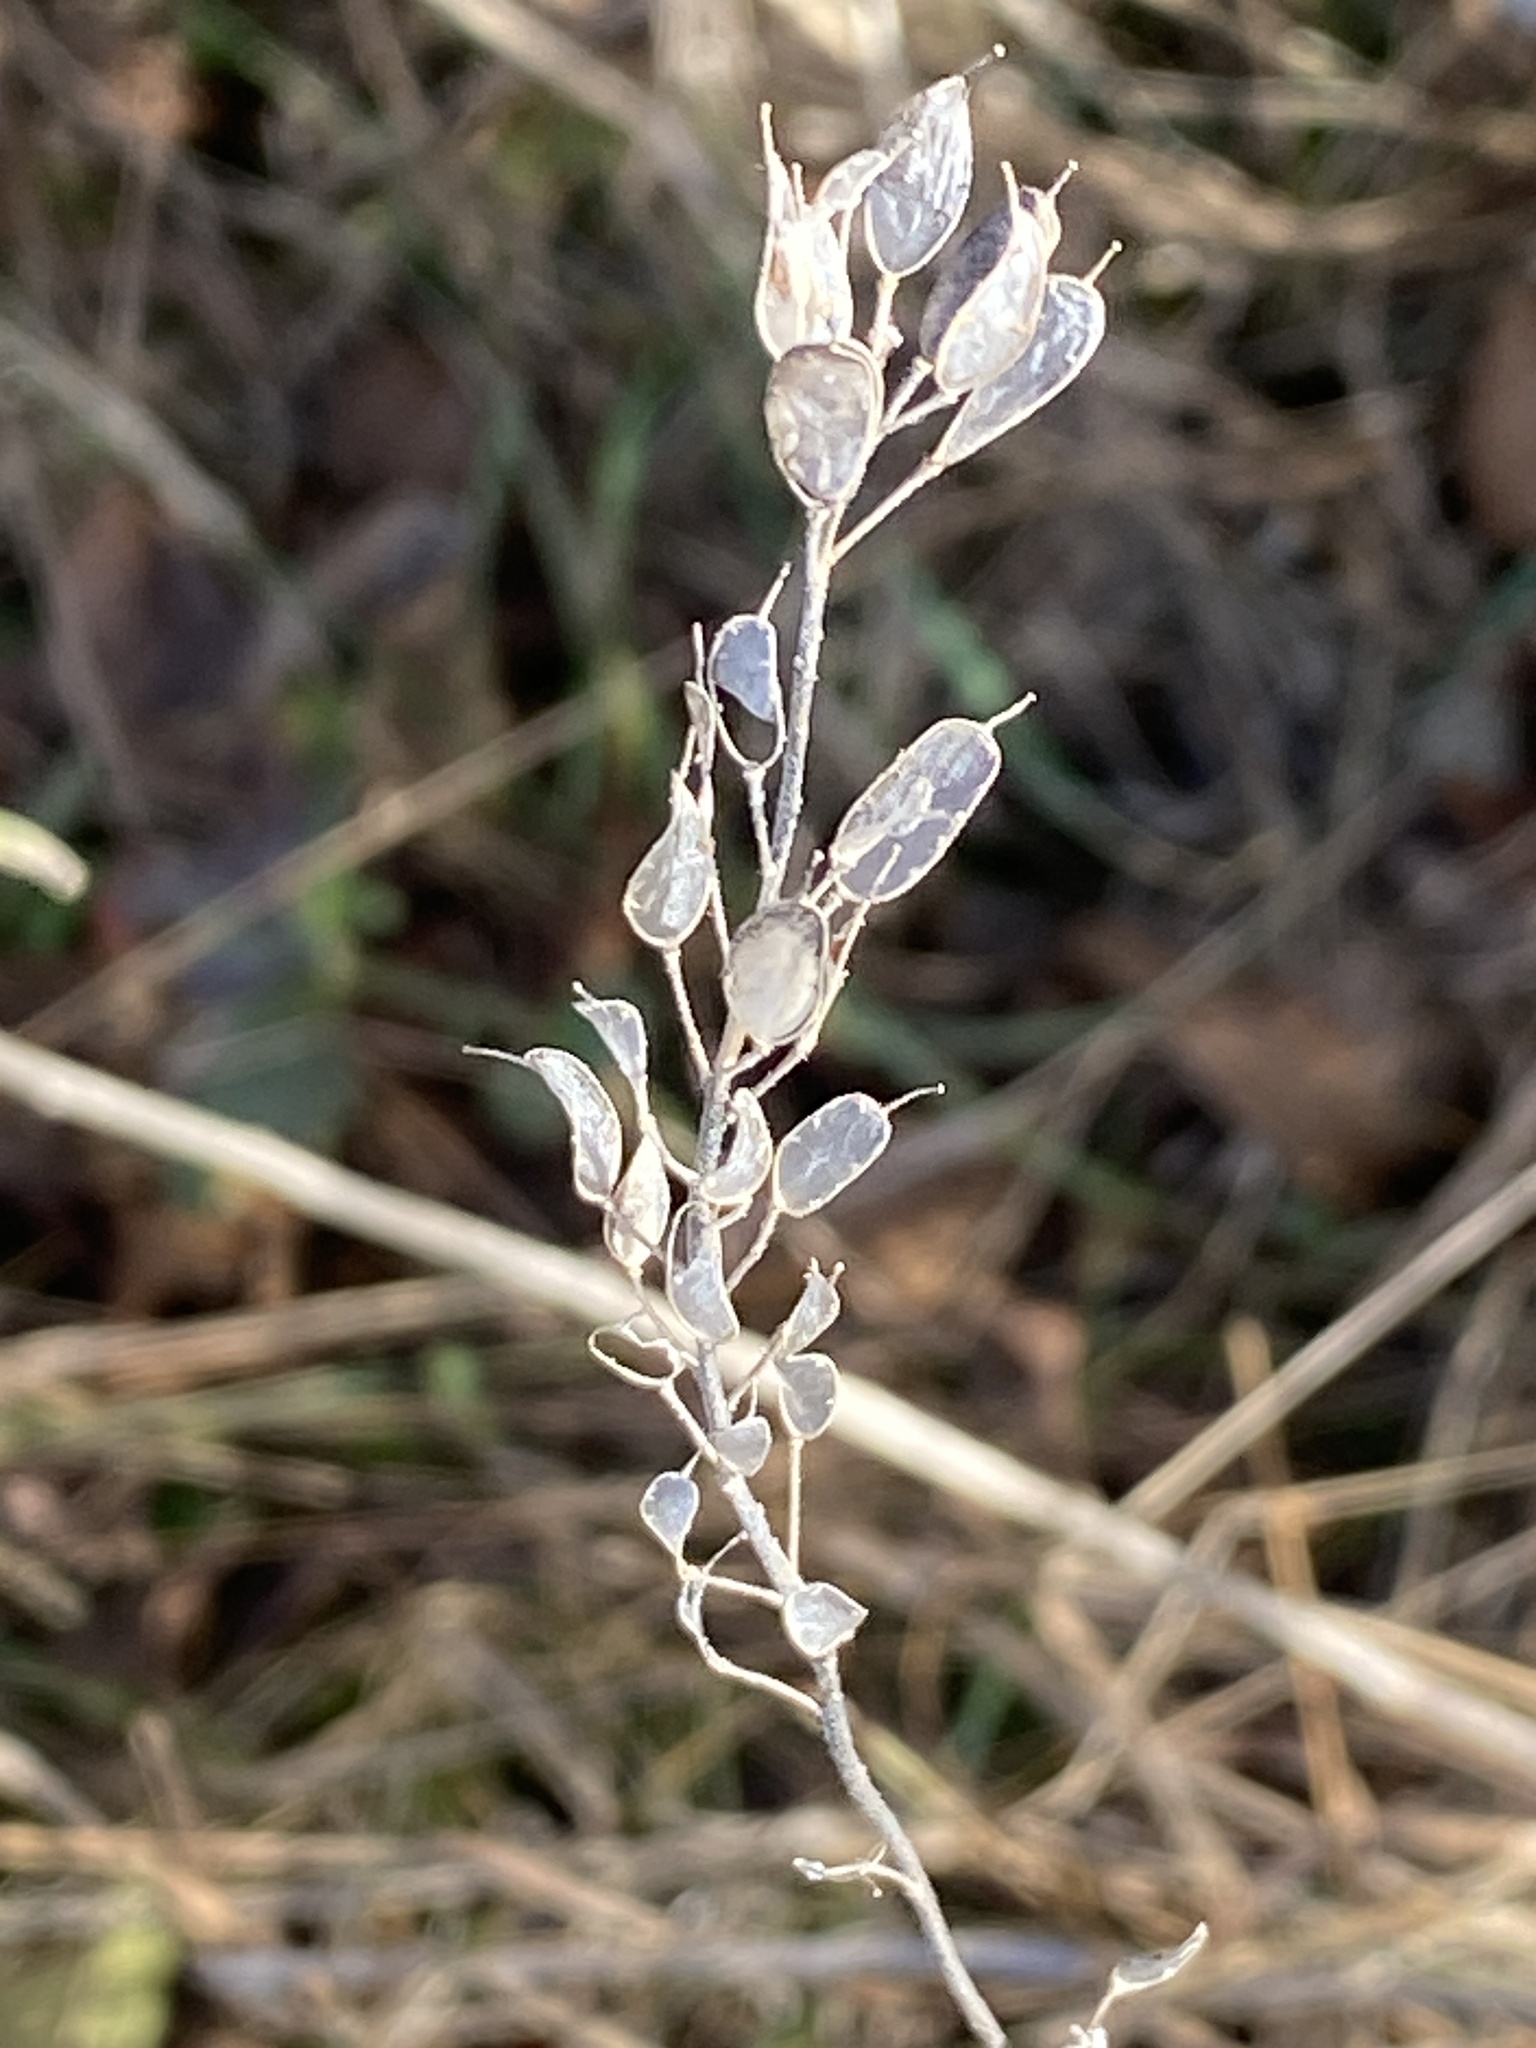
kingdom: Plantae
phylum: Tracheophyta
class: Magnoliopsida
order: Brassicales
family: Brassicaceae
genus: Berteroa
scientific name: Berteroa incana
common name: Hoary alison
